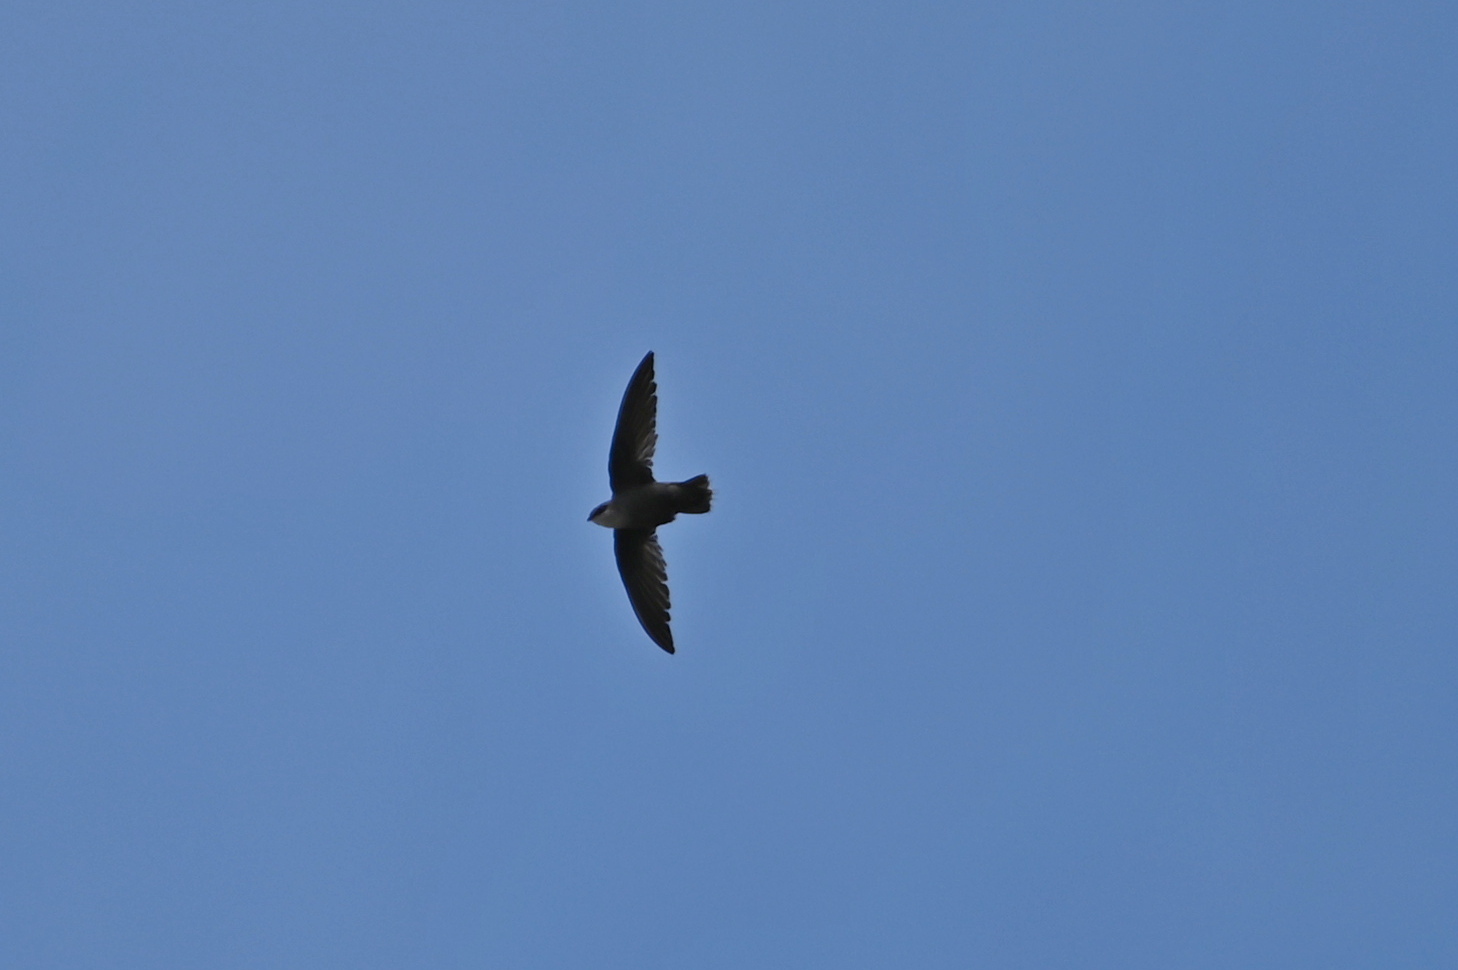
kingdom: Animalia
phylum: Chordata
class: Aves
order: Apodiformes
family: Apodidae
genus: Chaetura
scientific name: Chaetura pelagica
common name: Chimney swift
